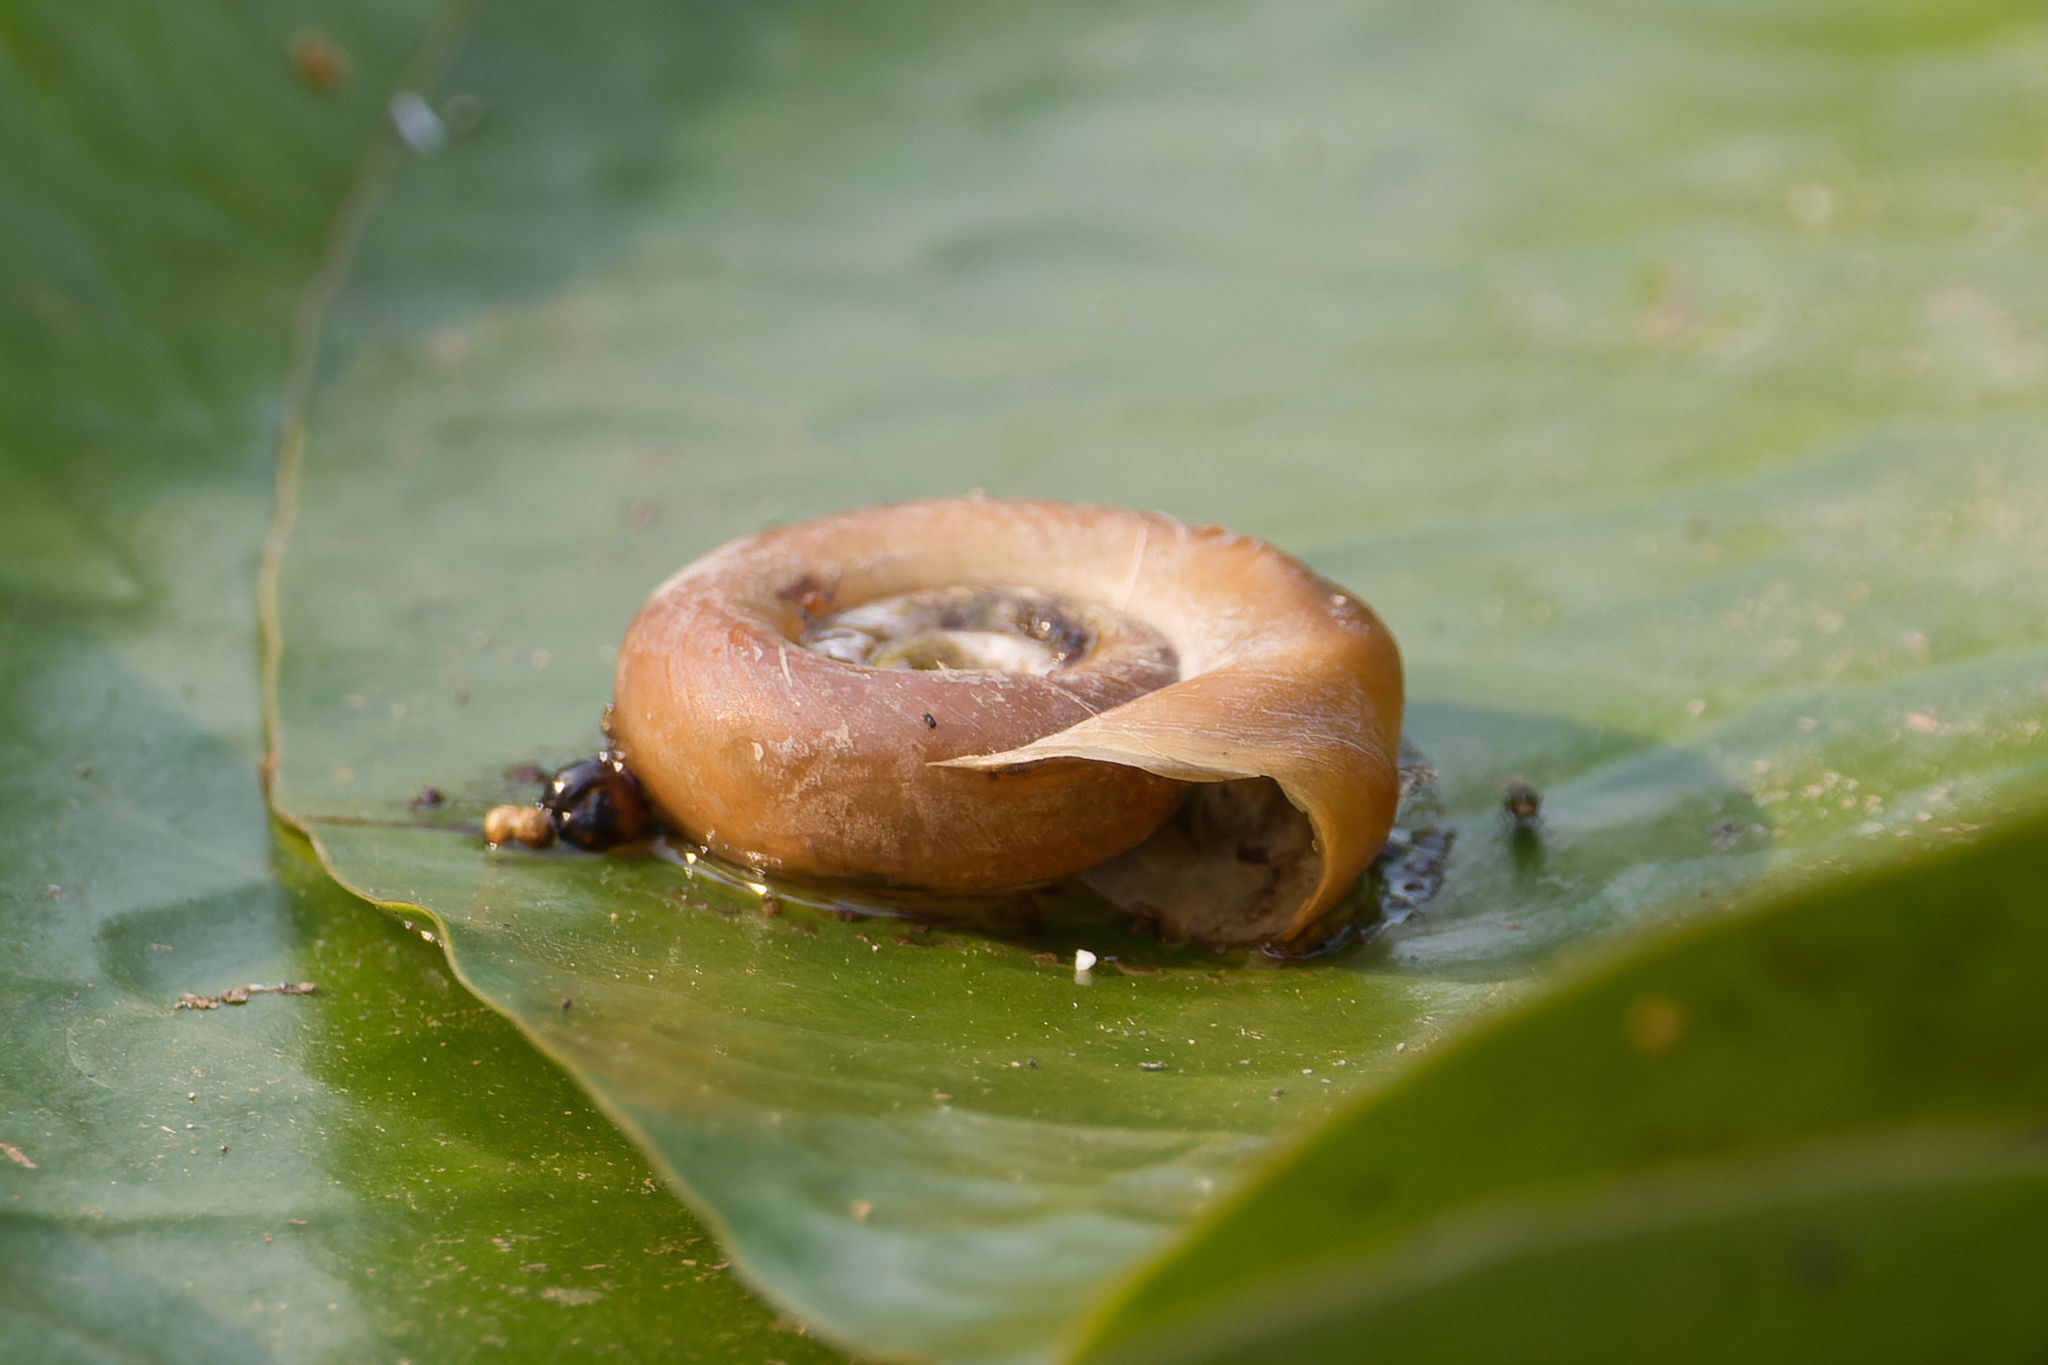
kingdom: Animalia
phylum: Mollusca
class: Gastropoda
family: Planorbidae
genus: Planorbarius
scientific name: Planorbarius corneus
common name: Great ramshorn
